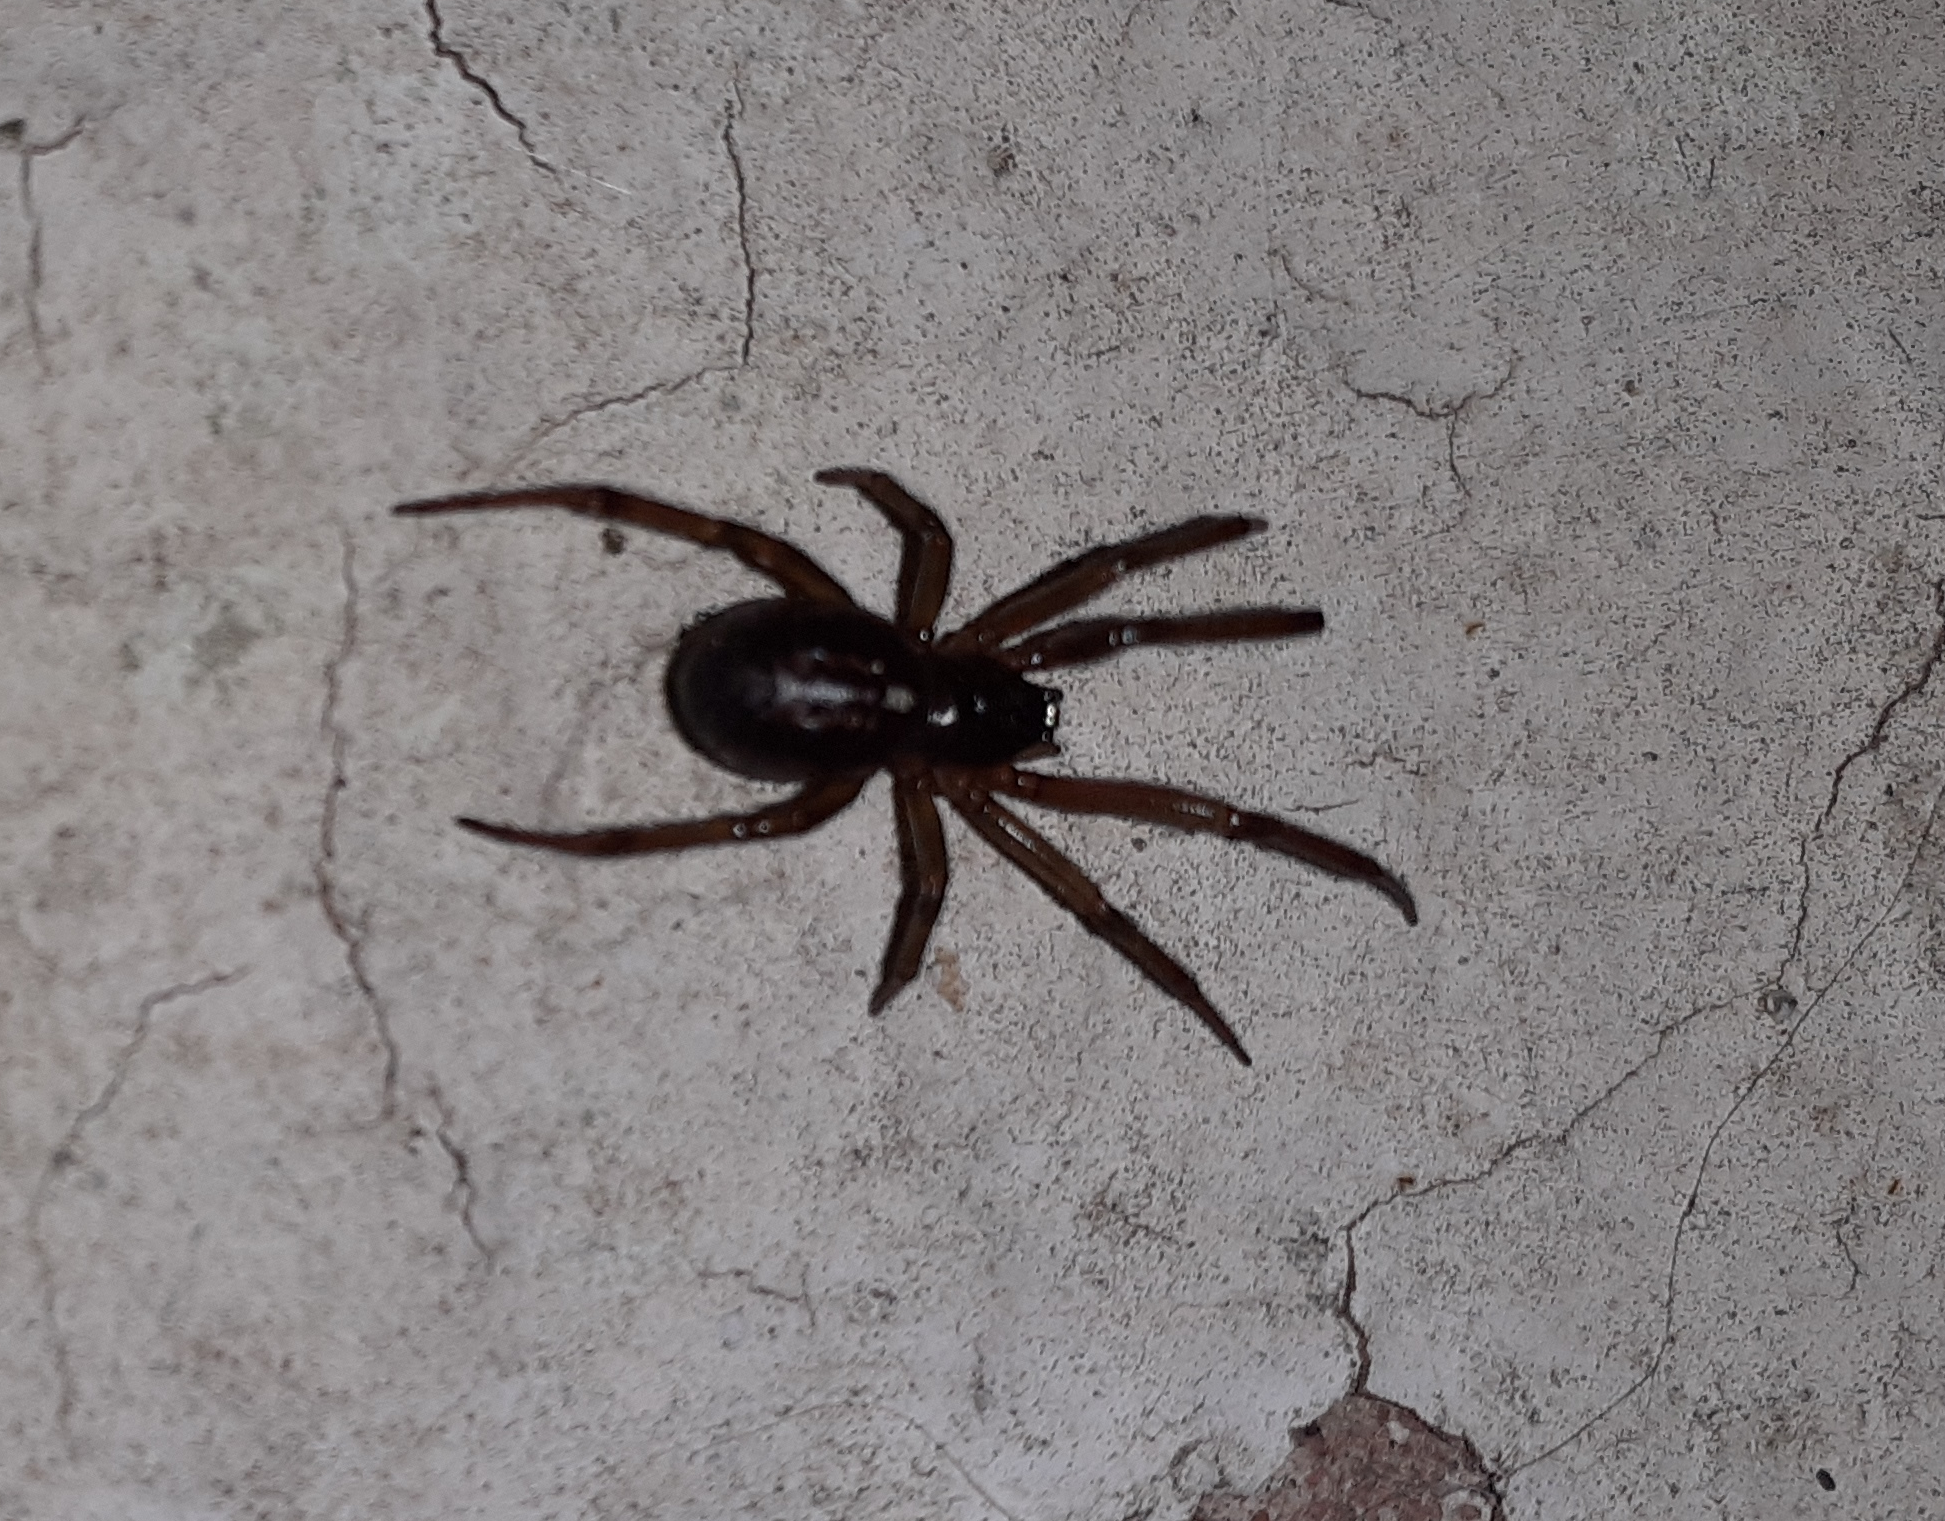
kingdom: Animalia
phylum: Arthropoda
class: Arachnida
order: Araneae
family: Theridiidae
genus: Steatoda
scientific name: Steatoda nobilis
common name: Cobweb weaver
